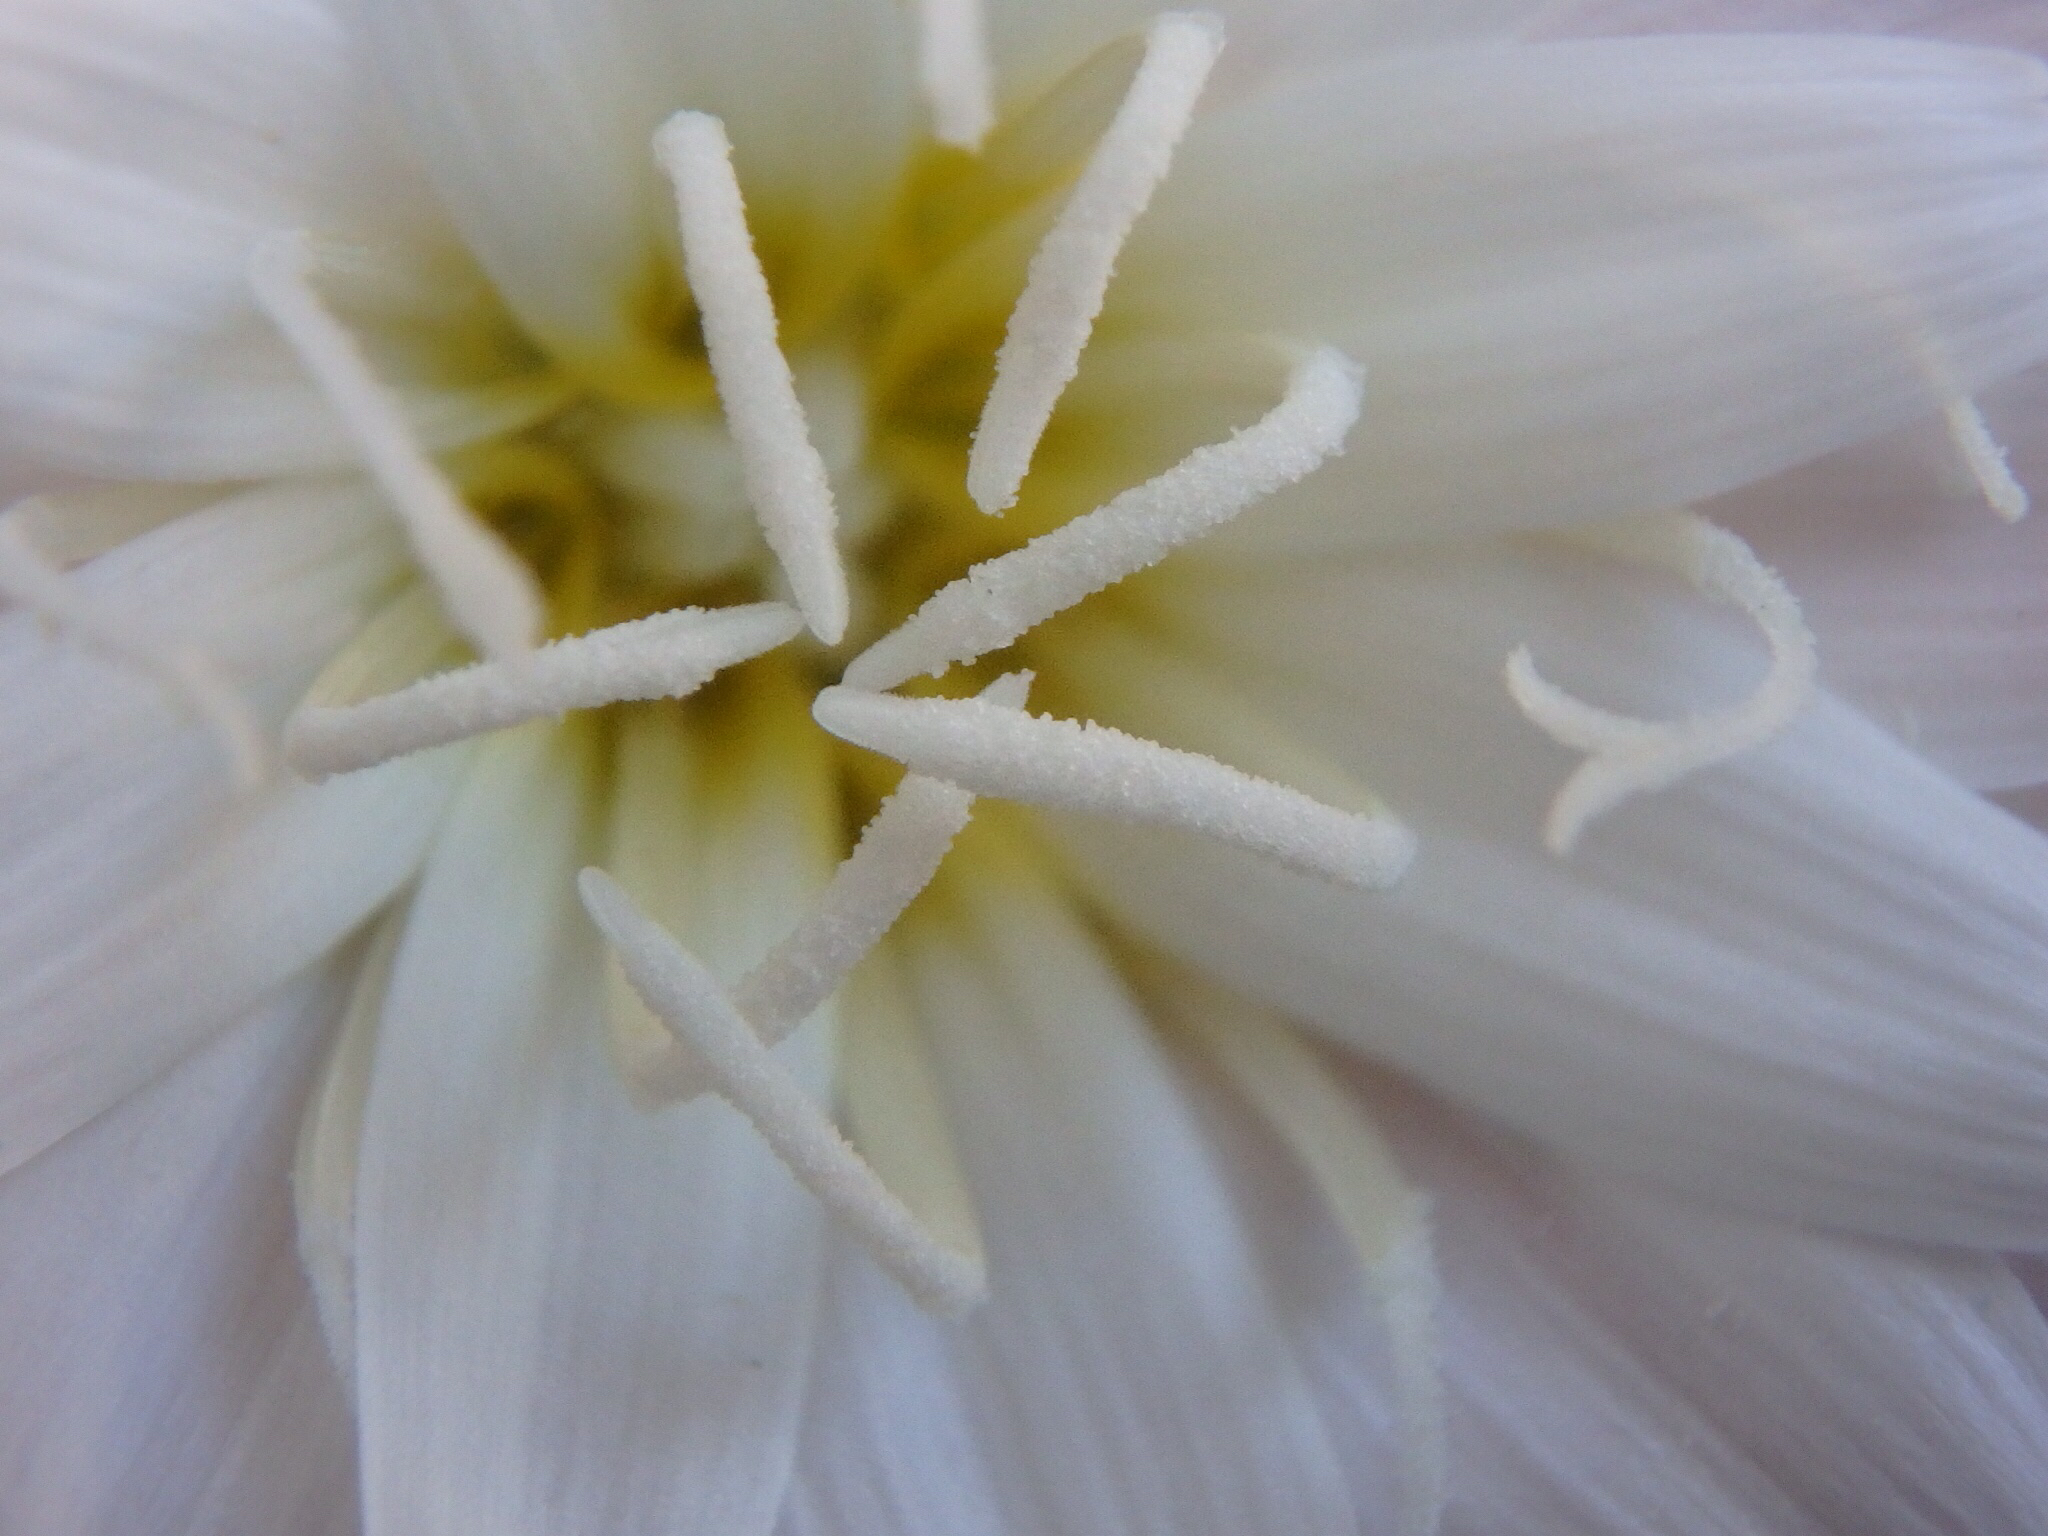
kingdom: Plantae
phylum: Tracheophyta
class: Magnoliopsida
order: Asterales
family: Asteraceae
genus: Rafinesquia
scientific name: Rafinesquia neomexicana
